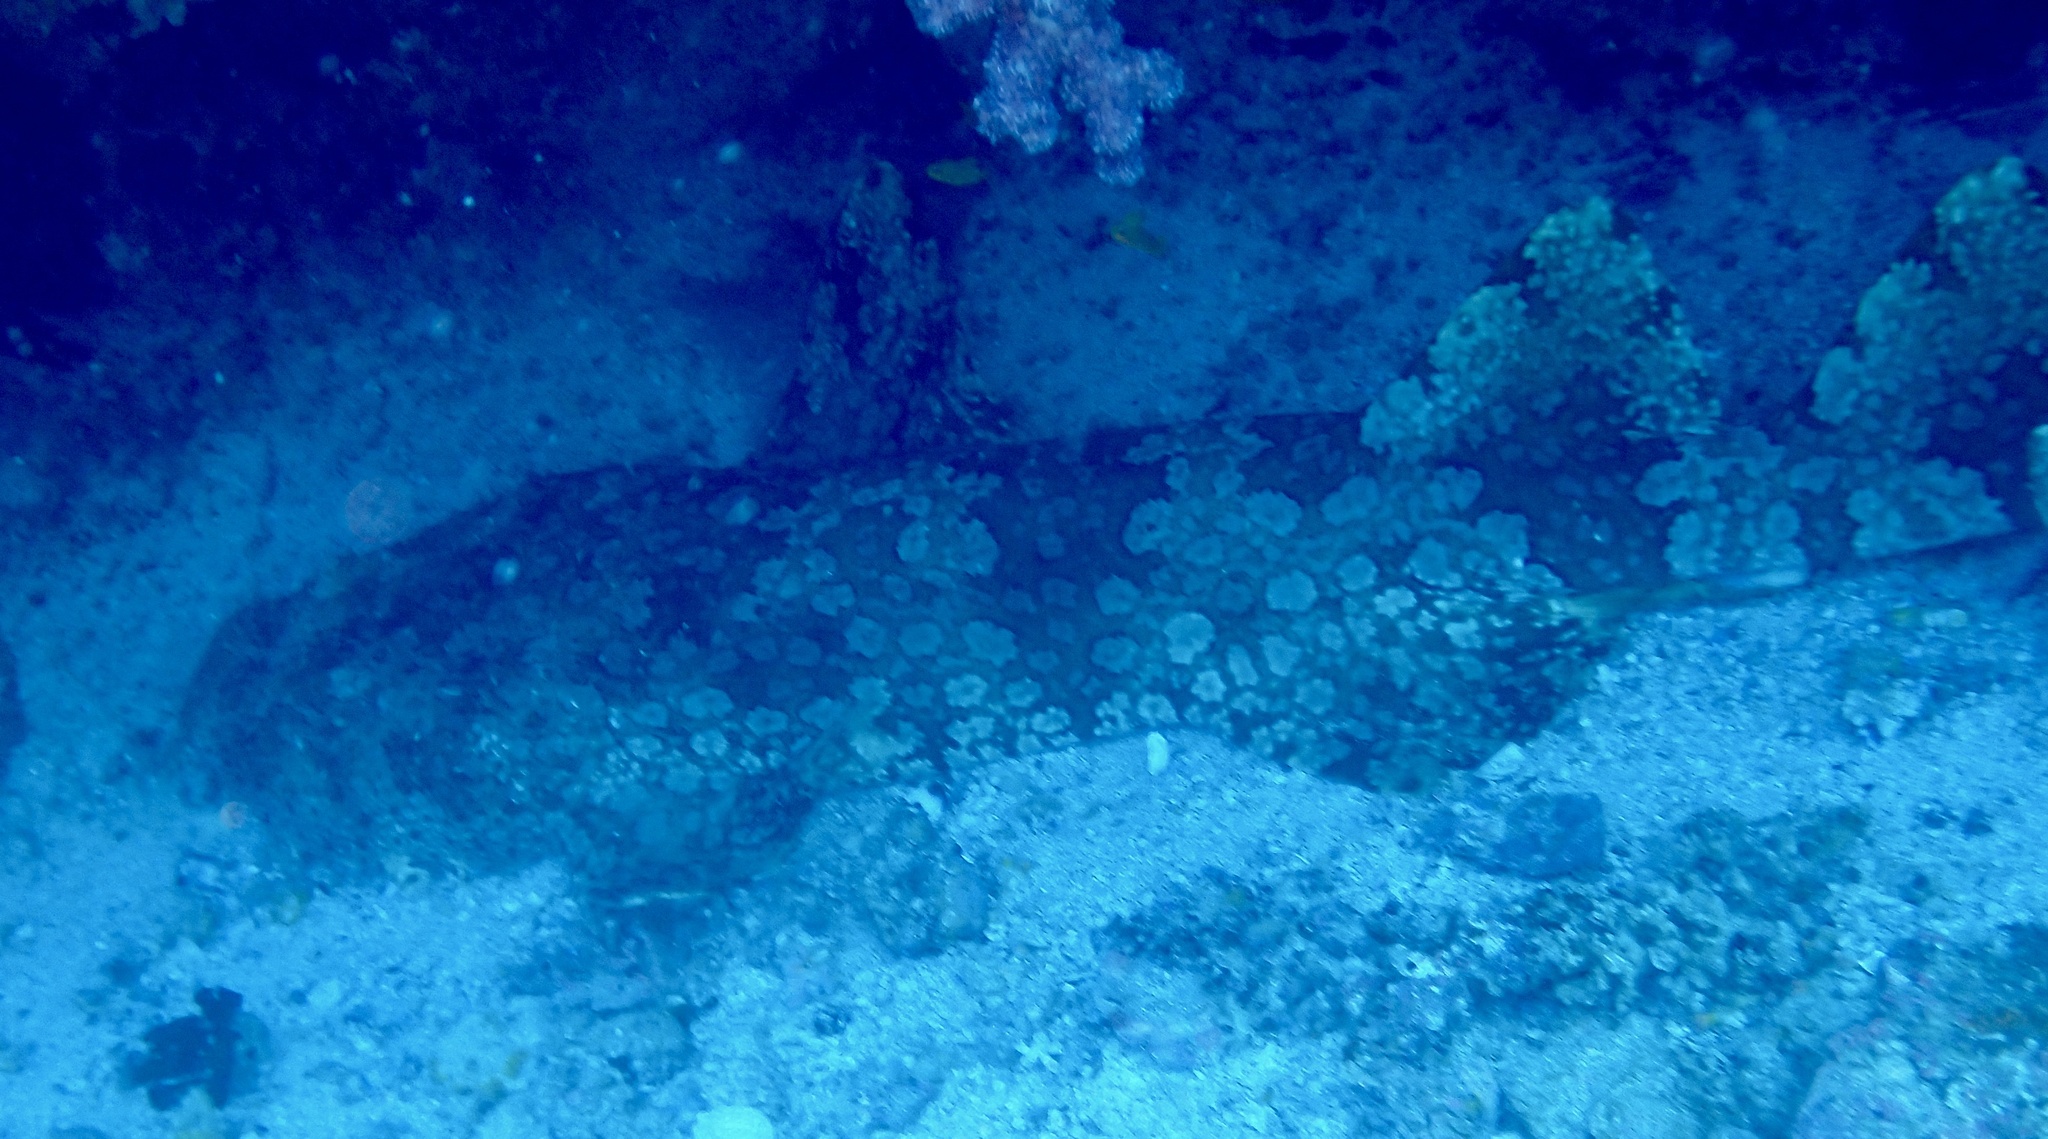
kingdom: Animalia
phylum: Chordata
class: Elasmobranchii
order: Orectolobiformes
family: Orectolobidae
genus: Orectolobus
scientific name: Orectolobus ornatus
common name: Ornate wobbegong
